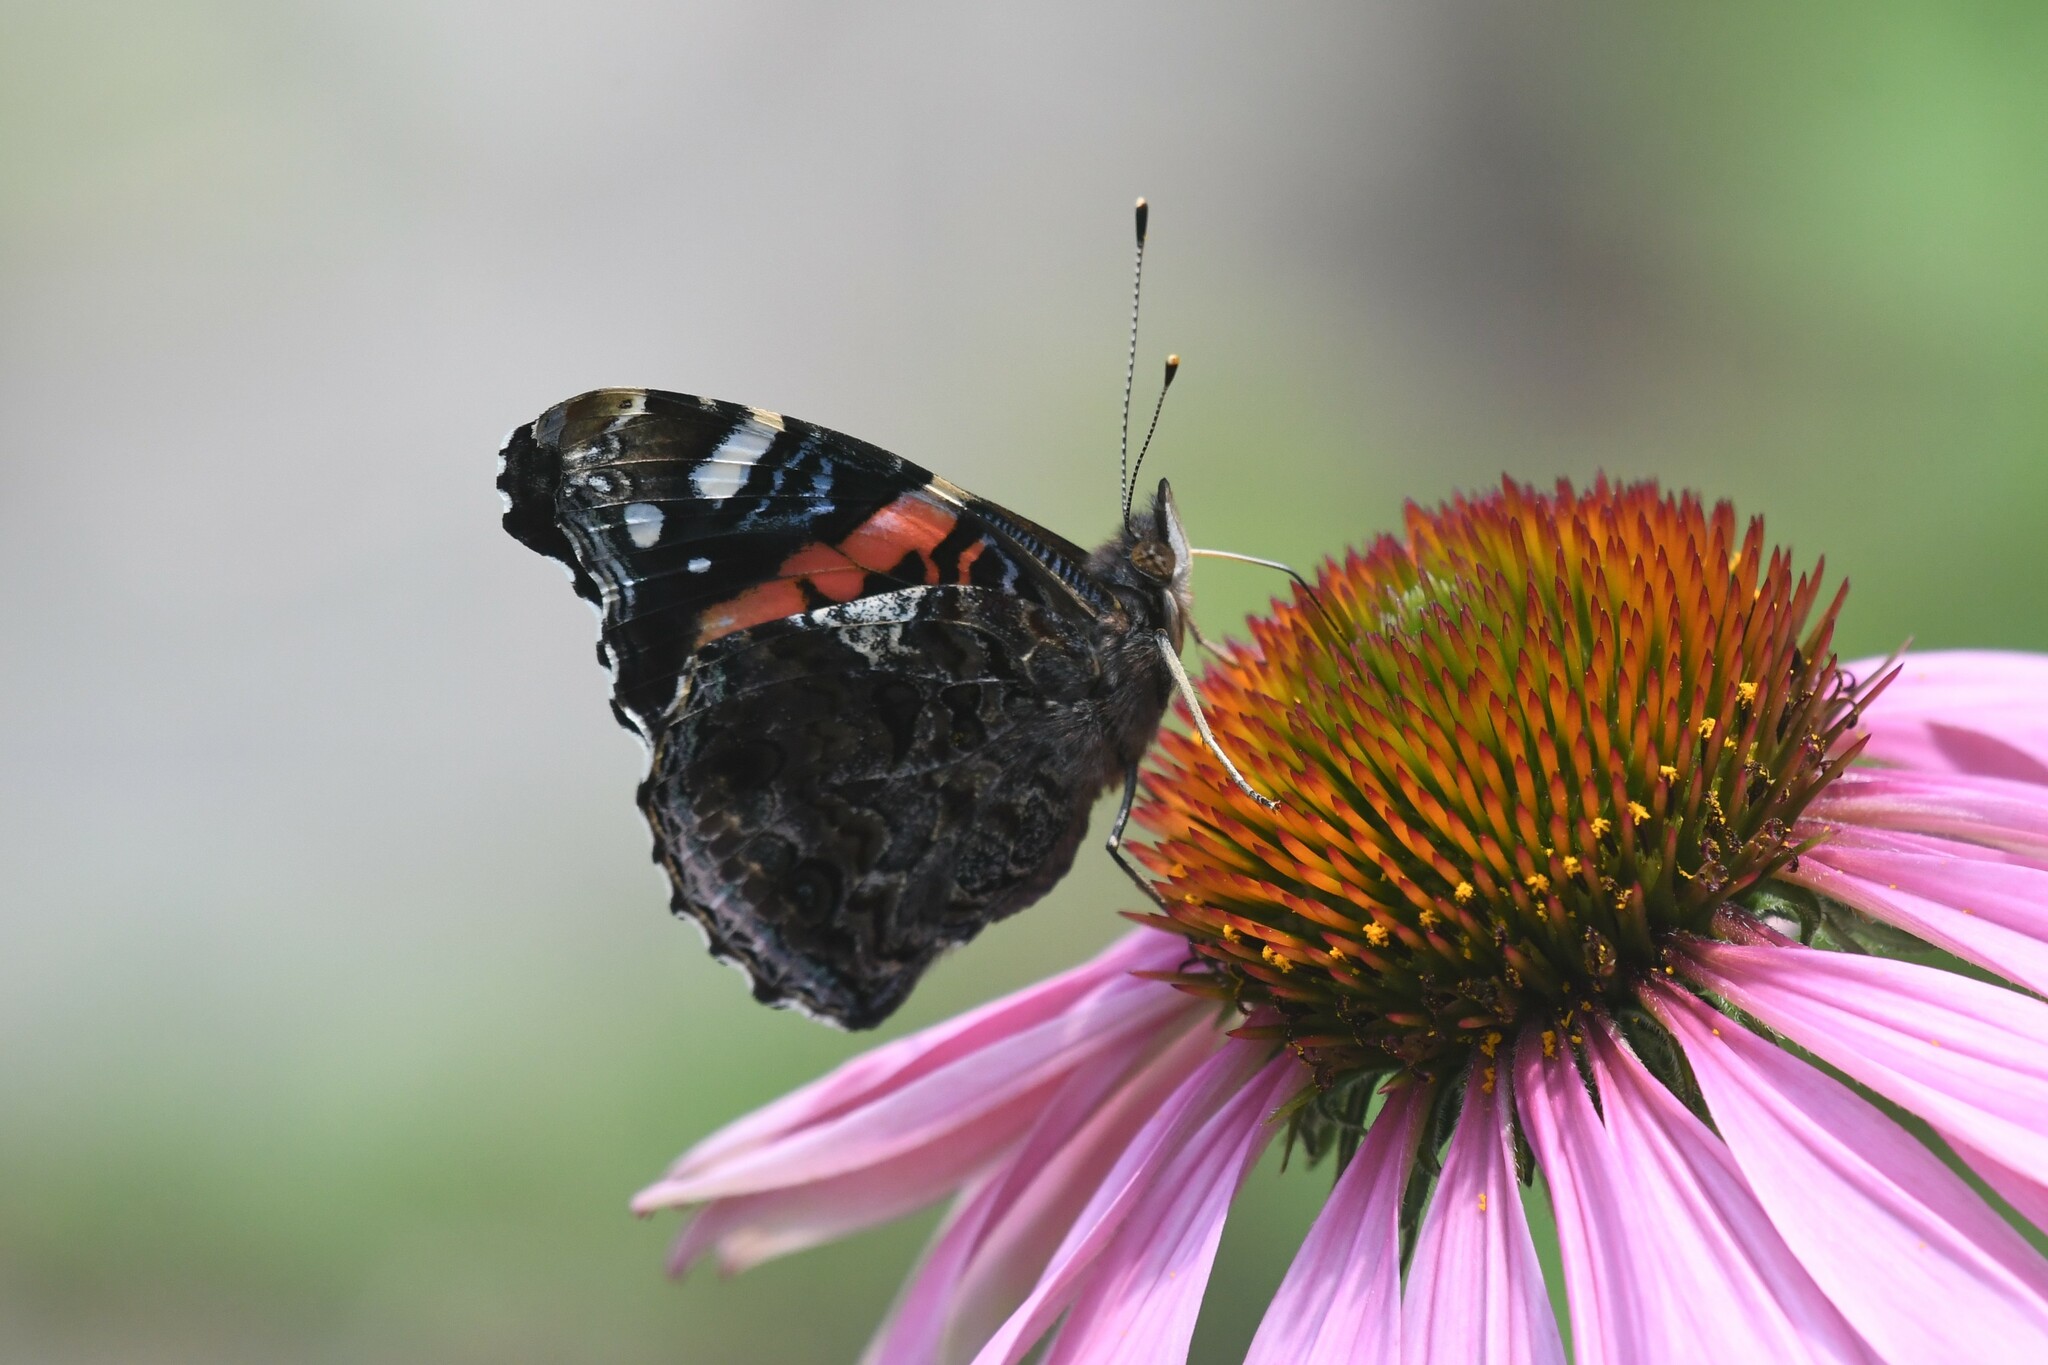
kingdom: Animalia
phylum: Arthropoda
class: Insecta
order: Lepidoptera
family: Nymphalidae
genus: Vanessa
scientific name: Vanessa atalanta
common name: Red admiral
